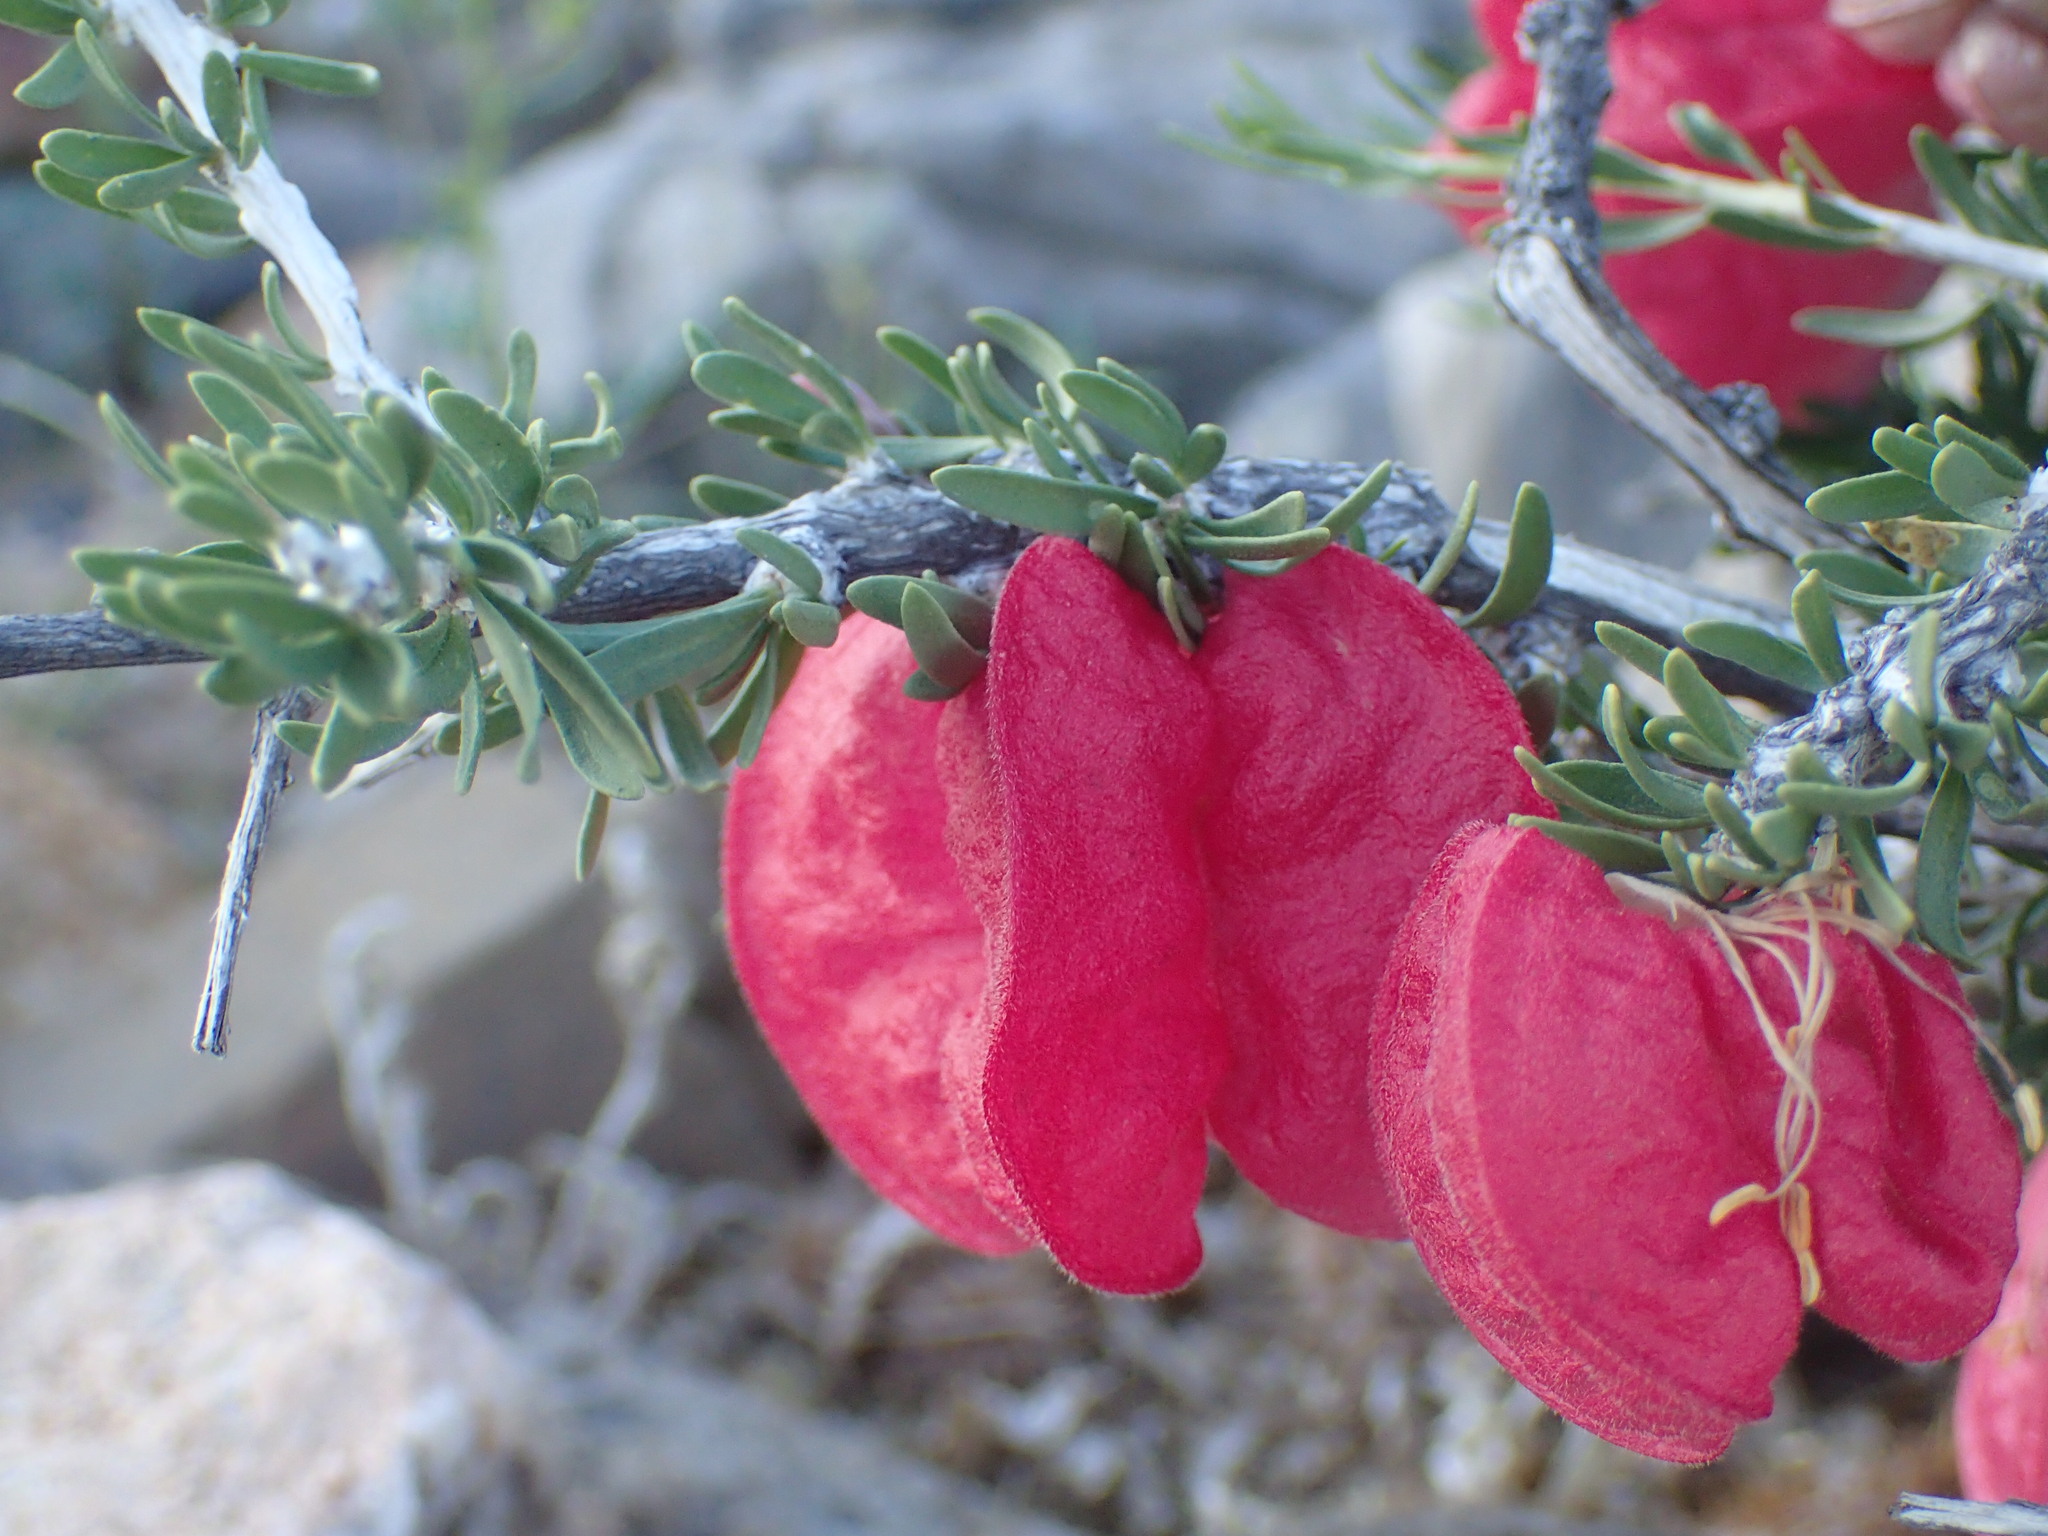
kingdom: Plantae
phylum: Tracheophyta
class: Magnoliopsida
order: Sapindales
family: Meliaceae
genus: Nymania
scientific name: Nymania capensis
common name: Chinese lantern tree
